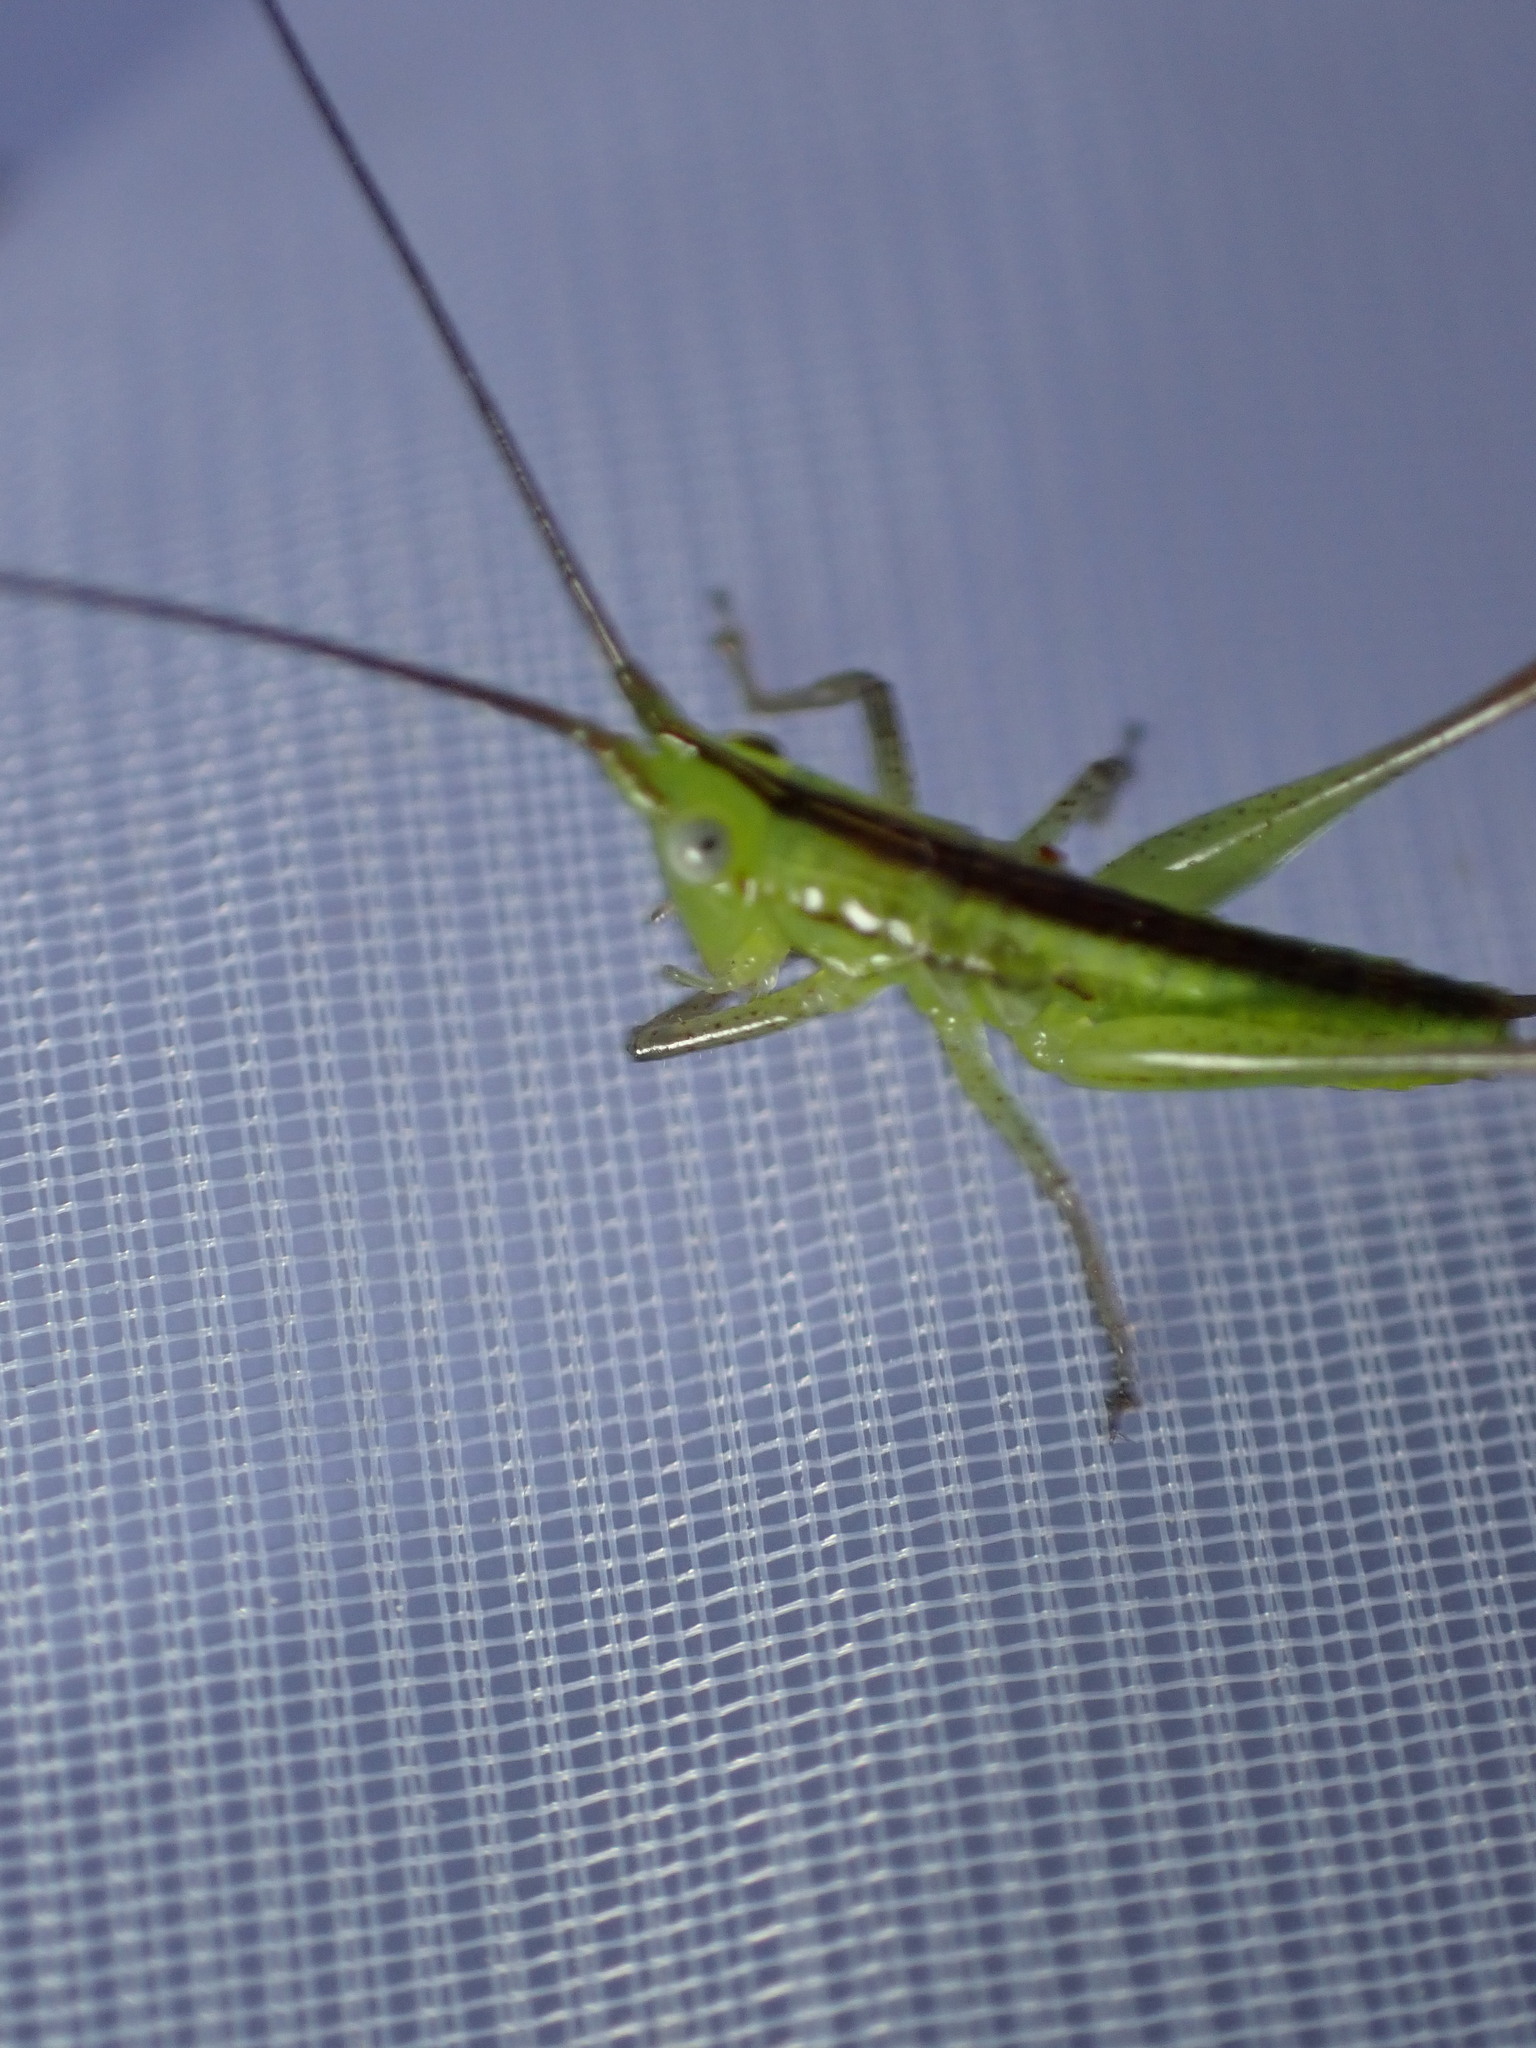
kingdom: Animalia
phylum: Arthropoda
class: Insecta
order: Orthoptera
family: Tettigoniidae
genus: Conocephalus
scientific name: Conocephalus conocephalus
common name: African meadow katydid
